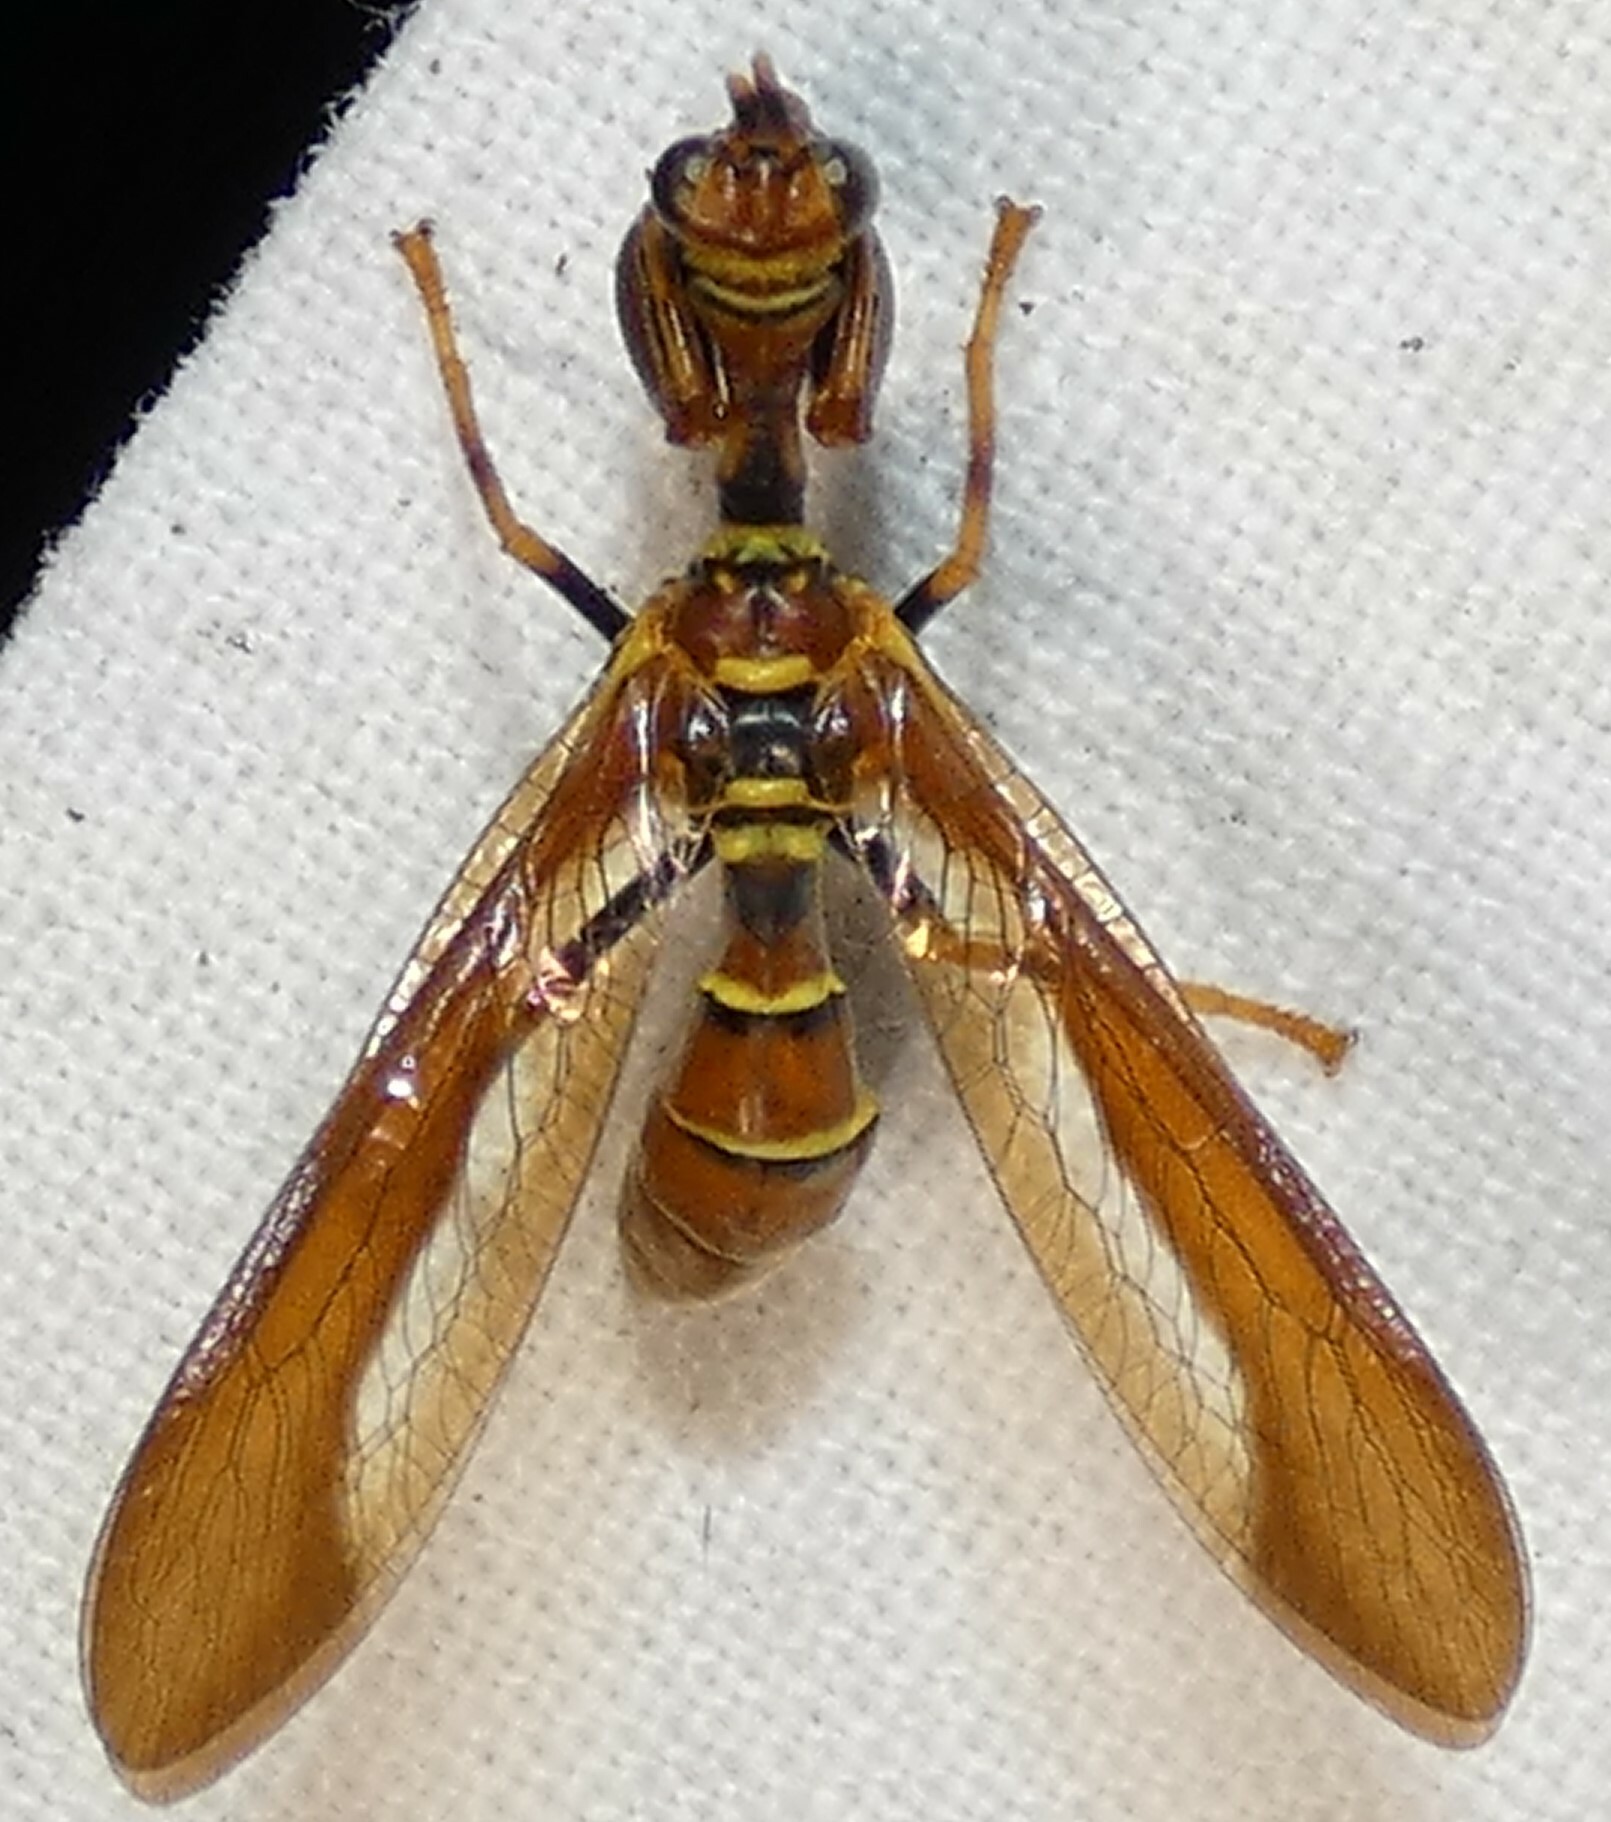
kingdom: Animalia
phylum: Arthropoda
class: Insecta
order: Neuroptera
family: Mantispidae
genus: Climaciella
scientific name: Climaciella brunnea
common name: Brown wasp mantidfly
